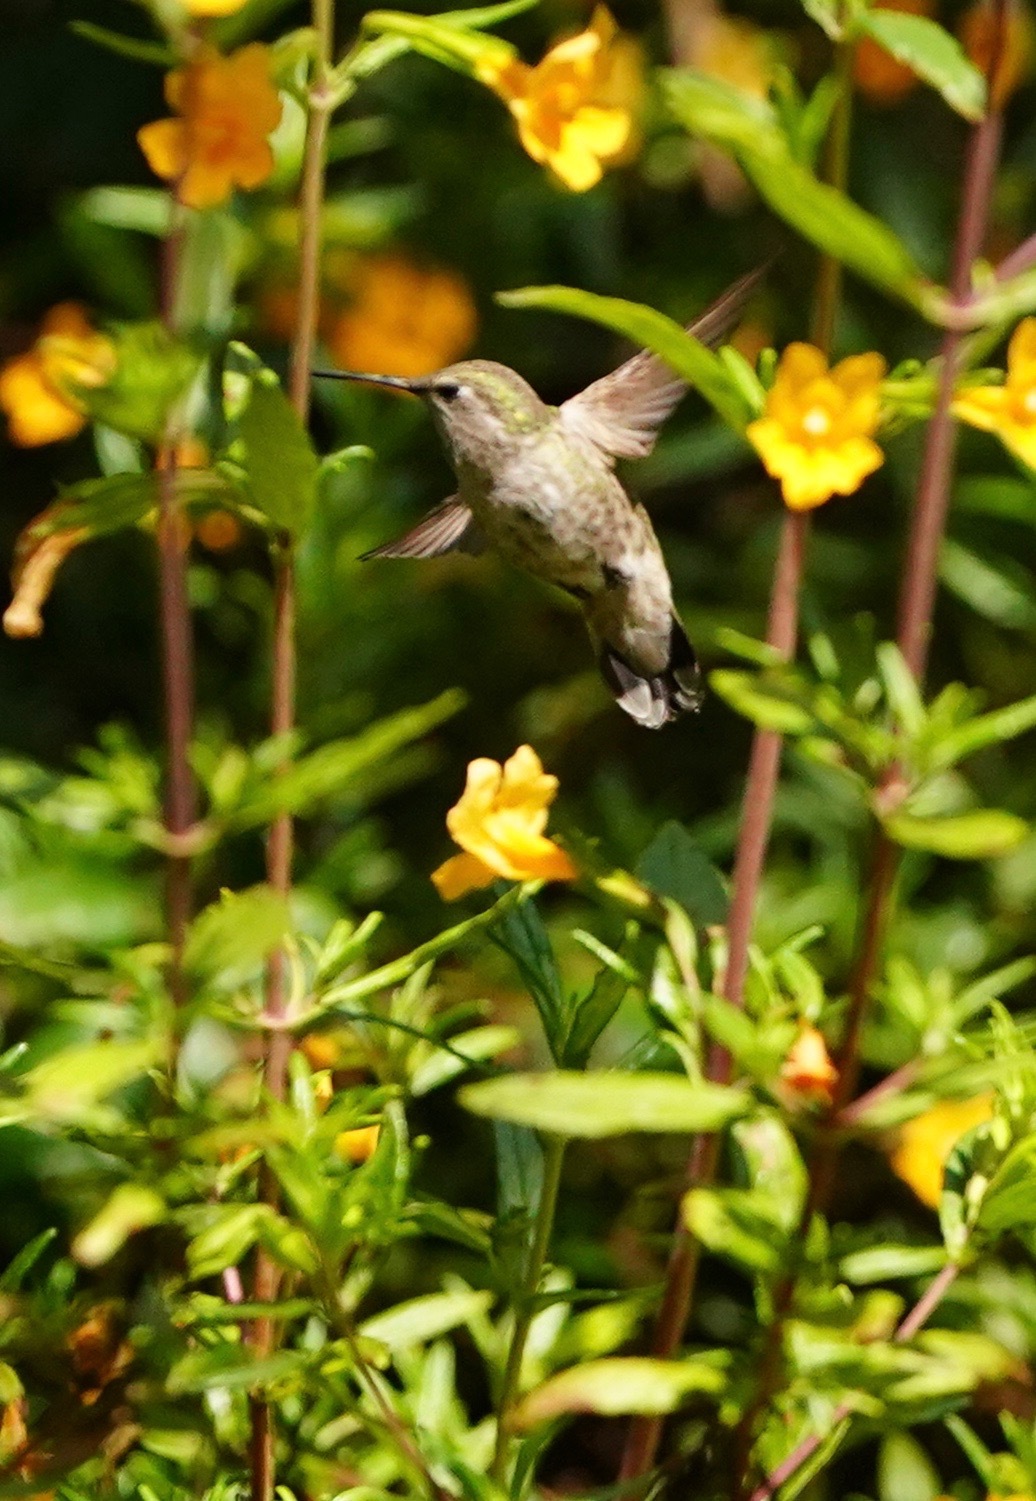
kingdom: Animalia
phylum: Chordata
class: Aves
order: Apodiformes
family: Trochilidae
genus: Calypte
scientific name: Calypte anna
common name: Anna's hummingbird
